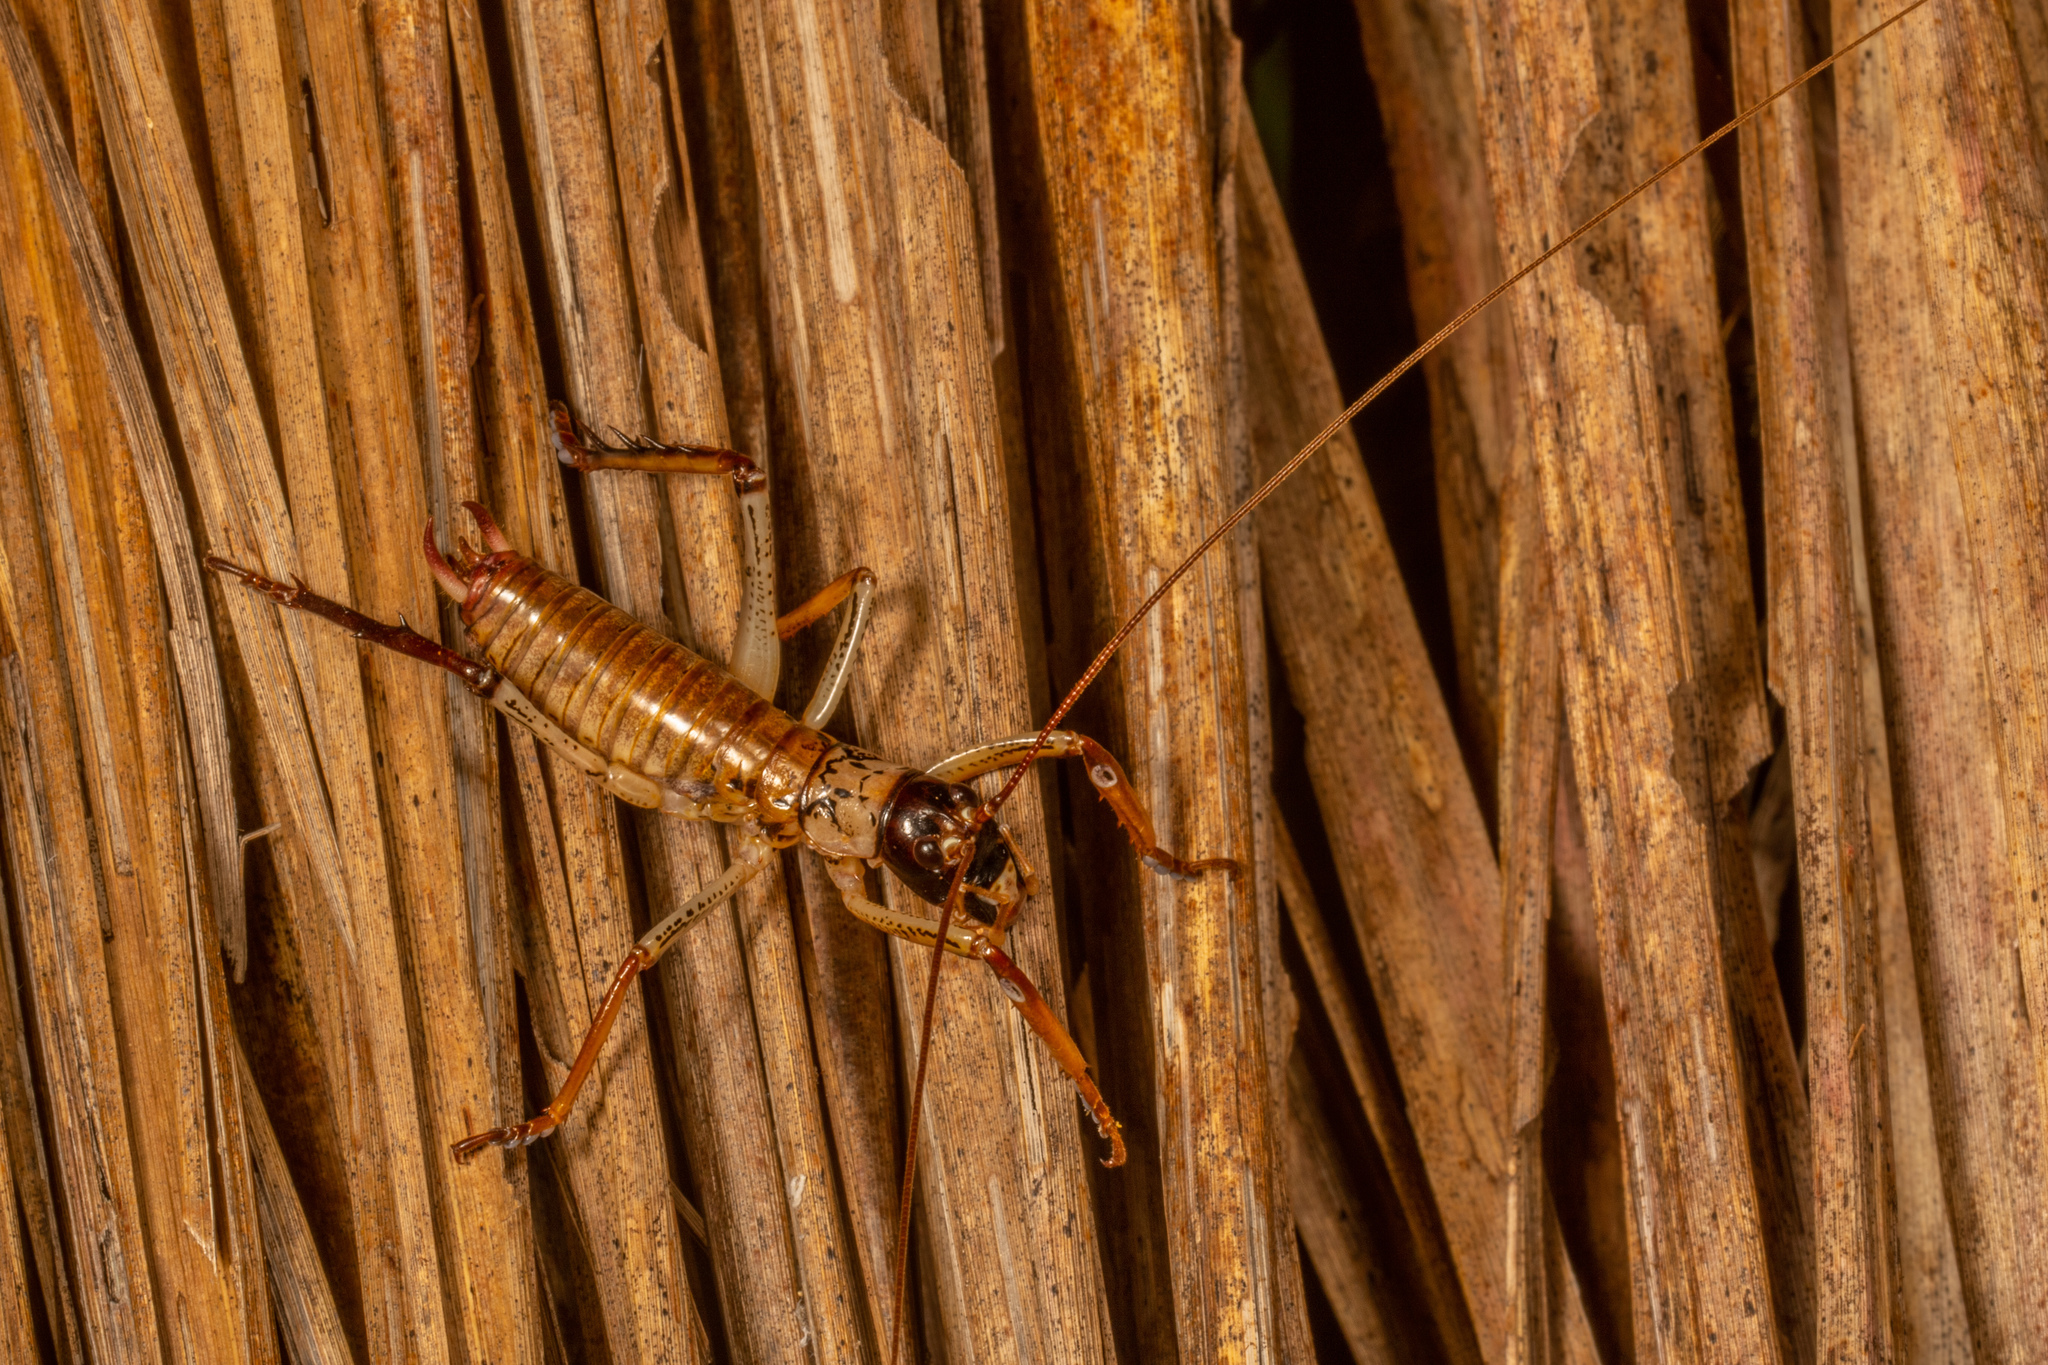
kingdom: Animalia
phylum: Arthropoda
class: Insecta
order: Orthoptera
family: Anostostomatidae
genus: Hemideina
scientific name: Hemideina thoracica
